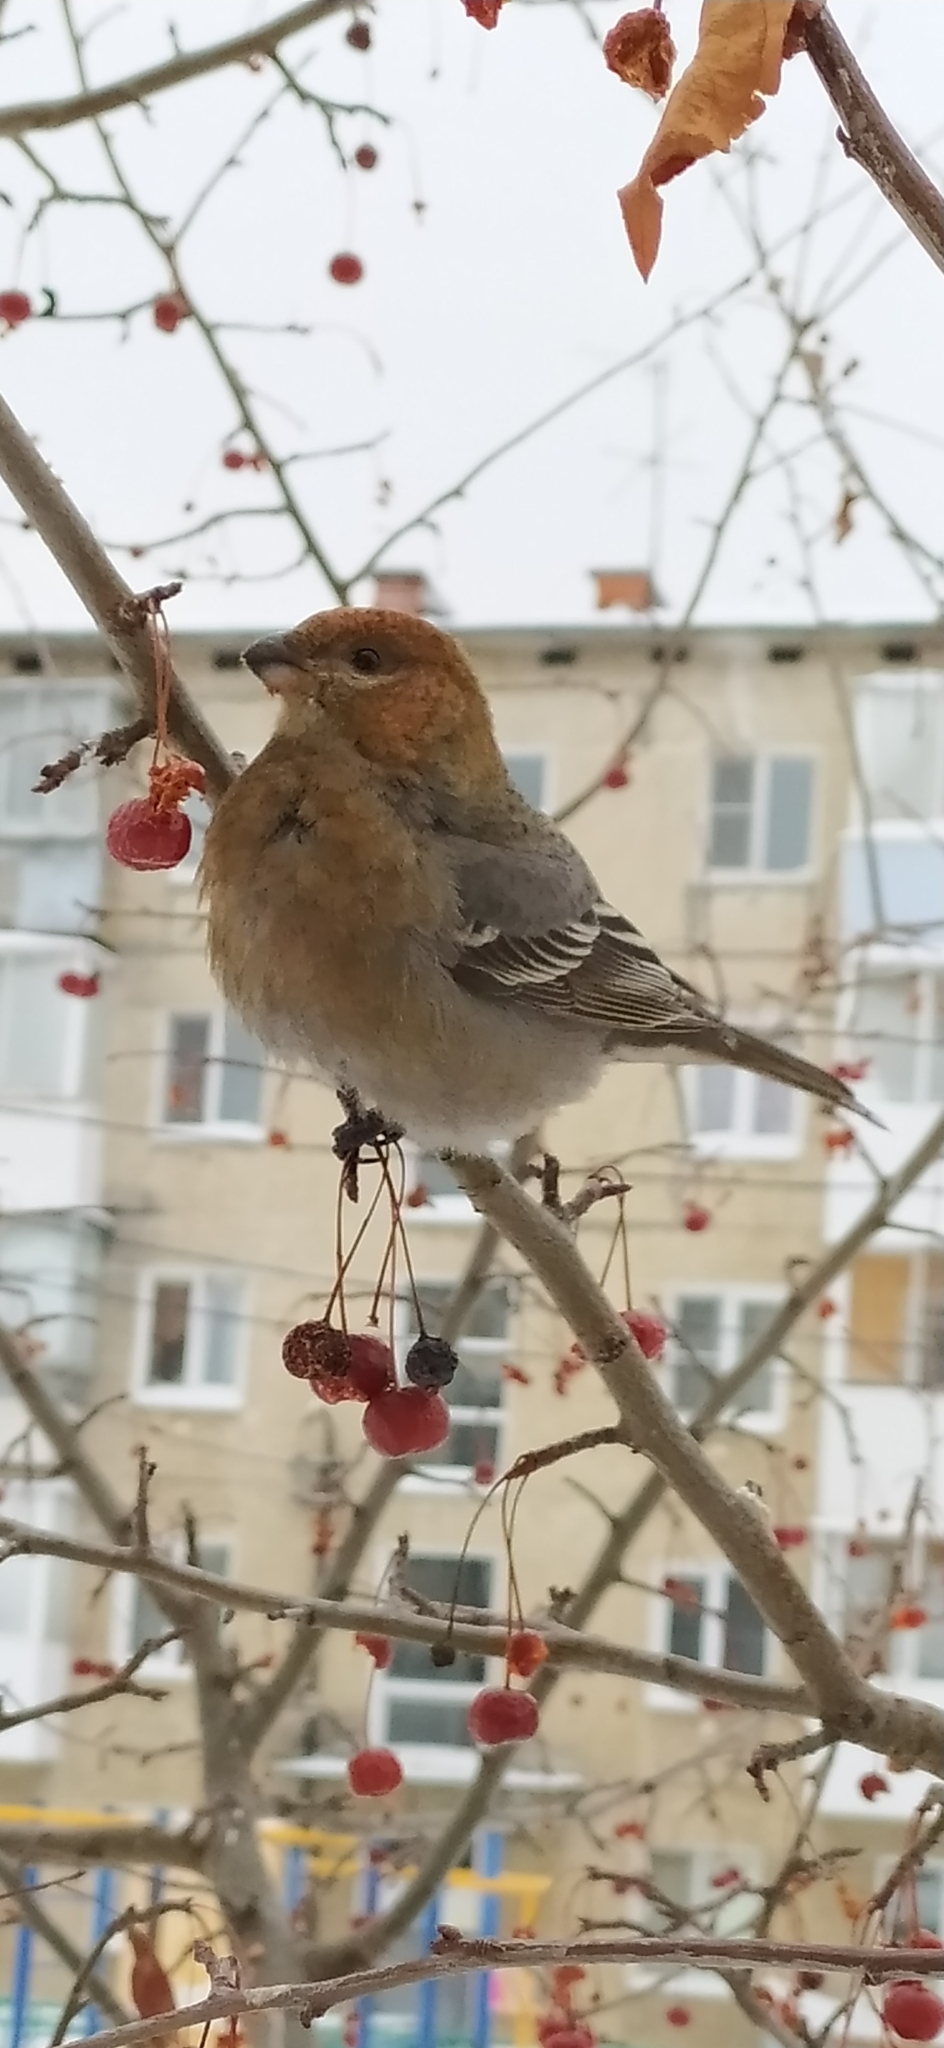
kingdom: Animalia
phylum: Chordata
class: Aves
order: Passeriformes
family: Fringillidae
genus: Pinicola
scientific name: Pinicola enucleator
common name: Pine grosbeak
